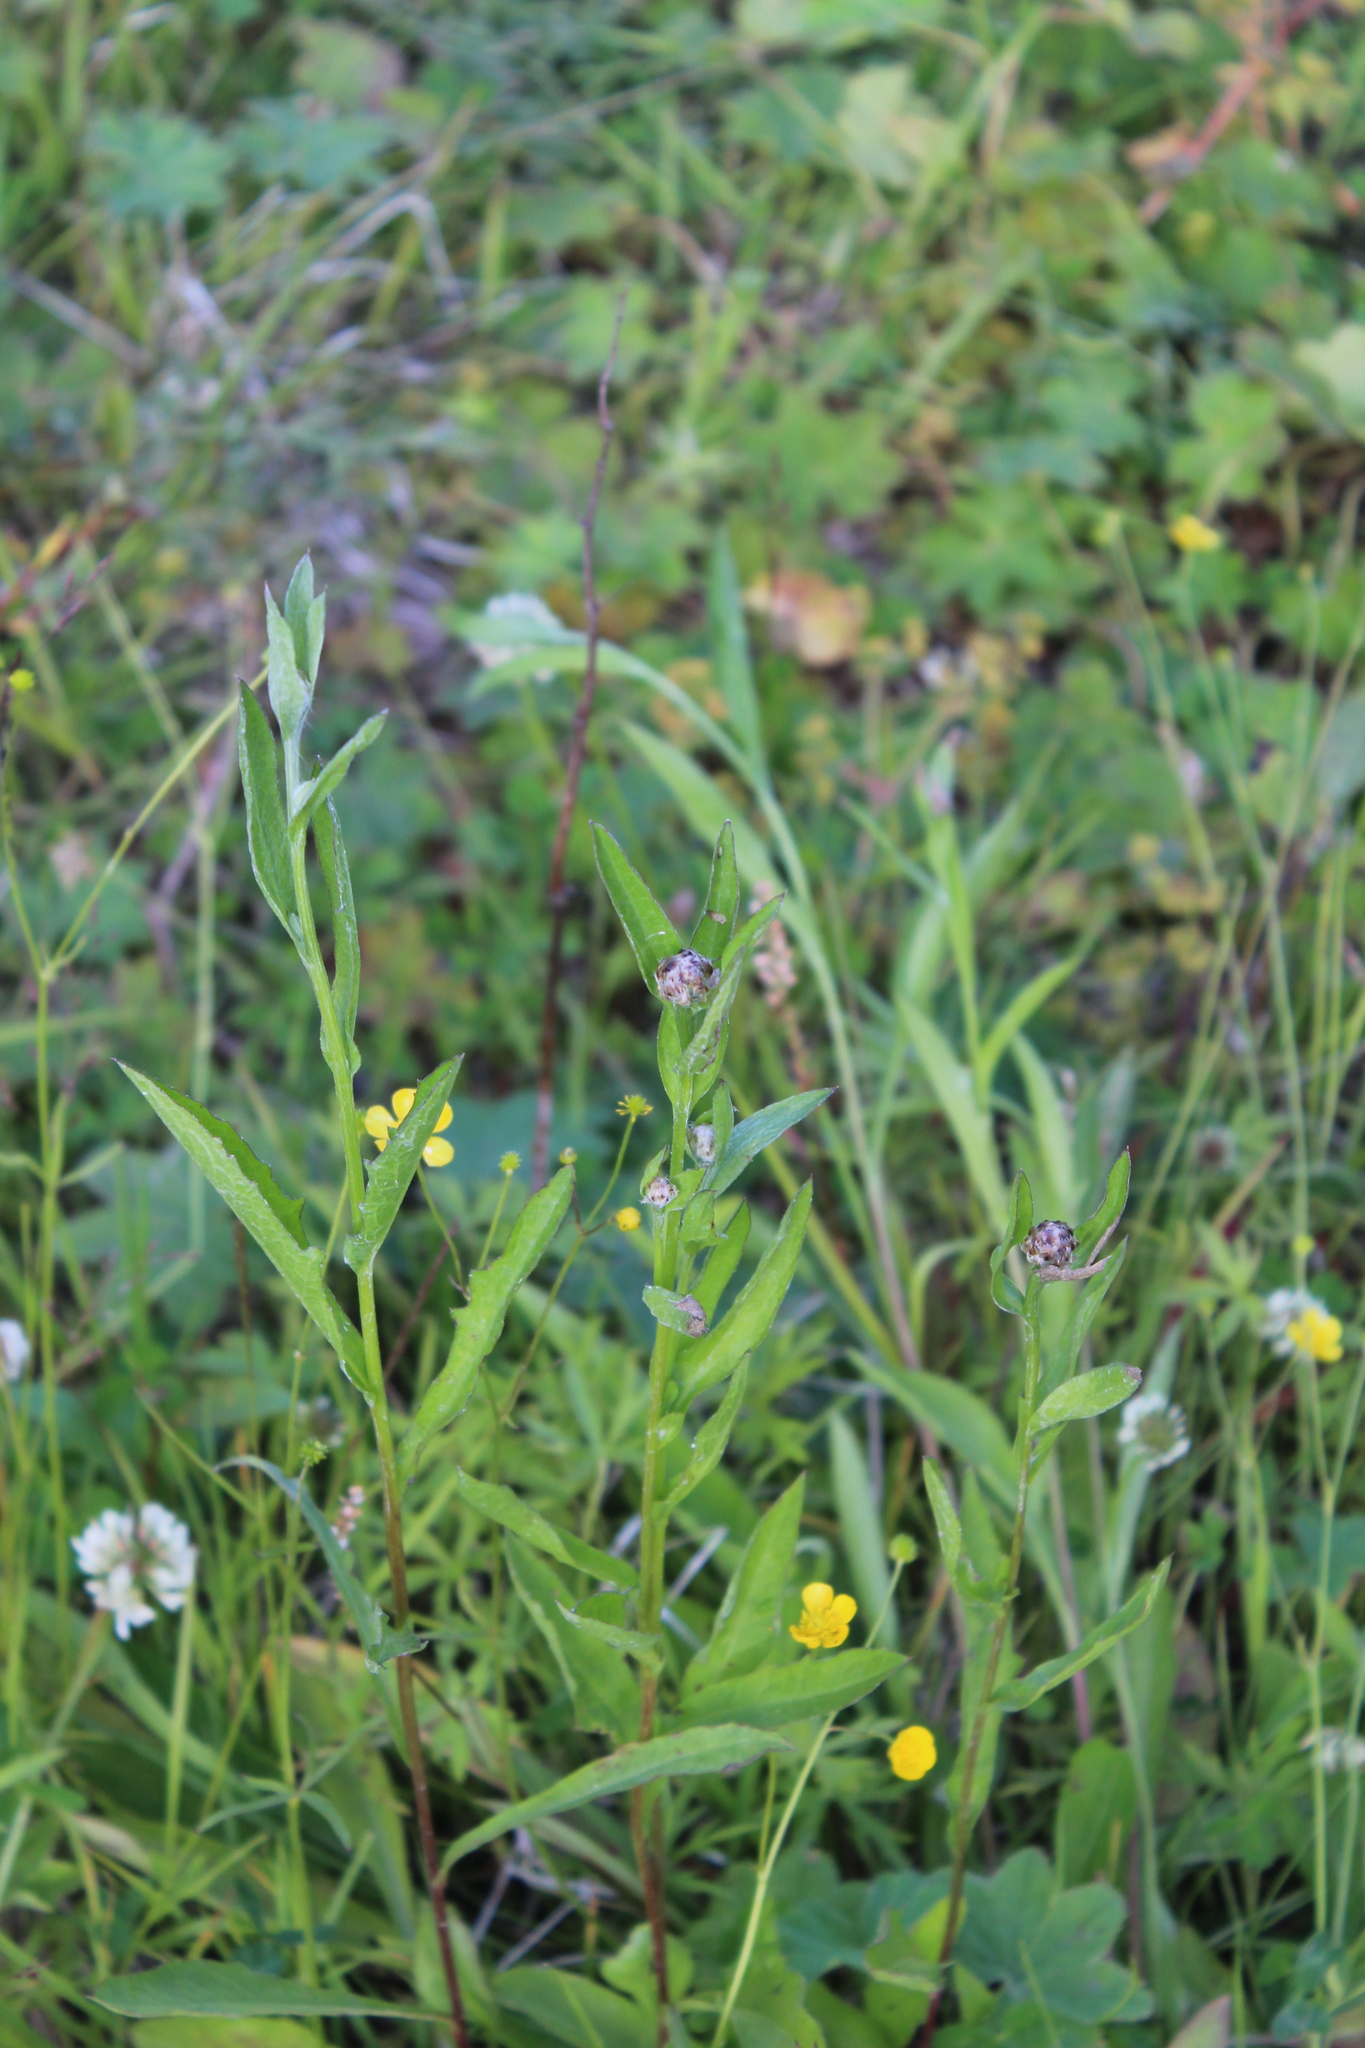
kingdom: Plantae
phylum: Tracheophyta
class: Magnoliopsida
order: Asterales
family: Asteraceae
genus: Centaurea
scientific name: Centaurea jacea
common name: Brown knapweed
